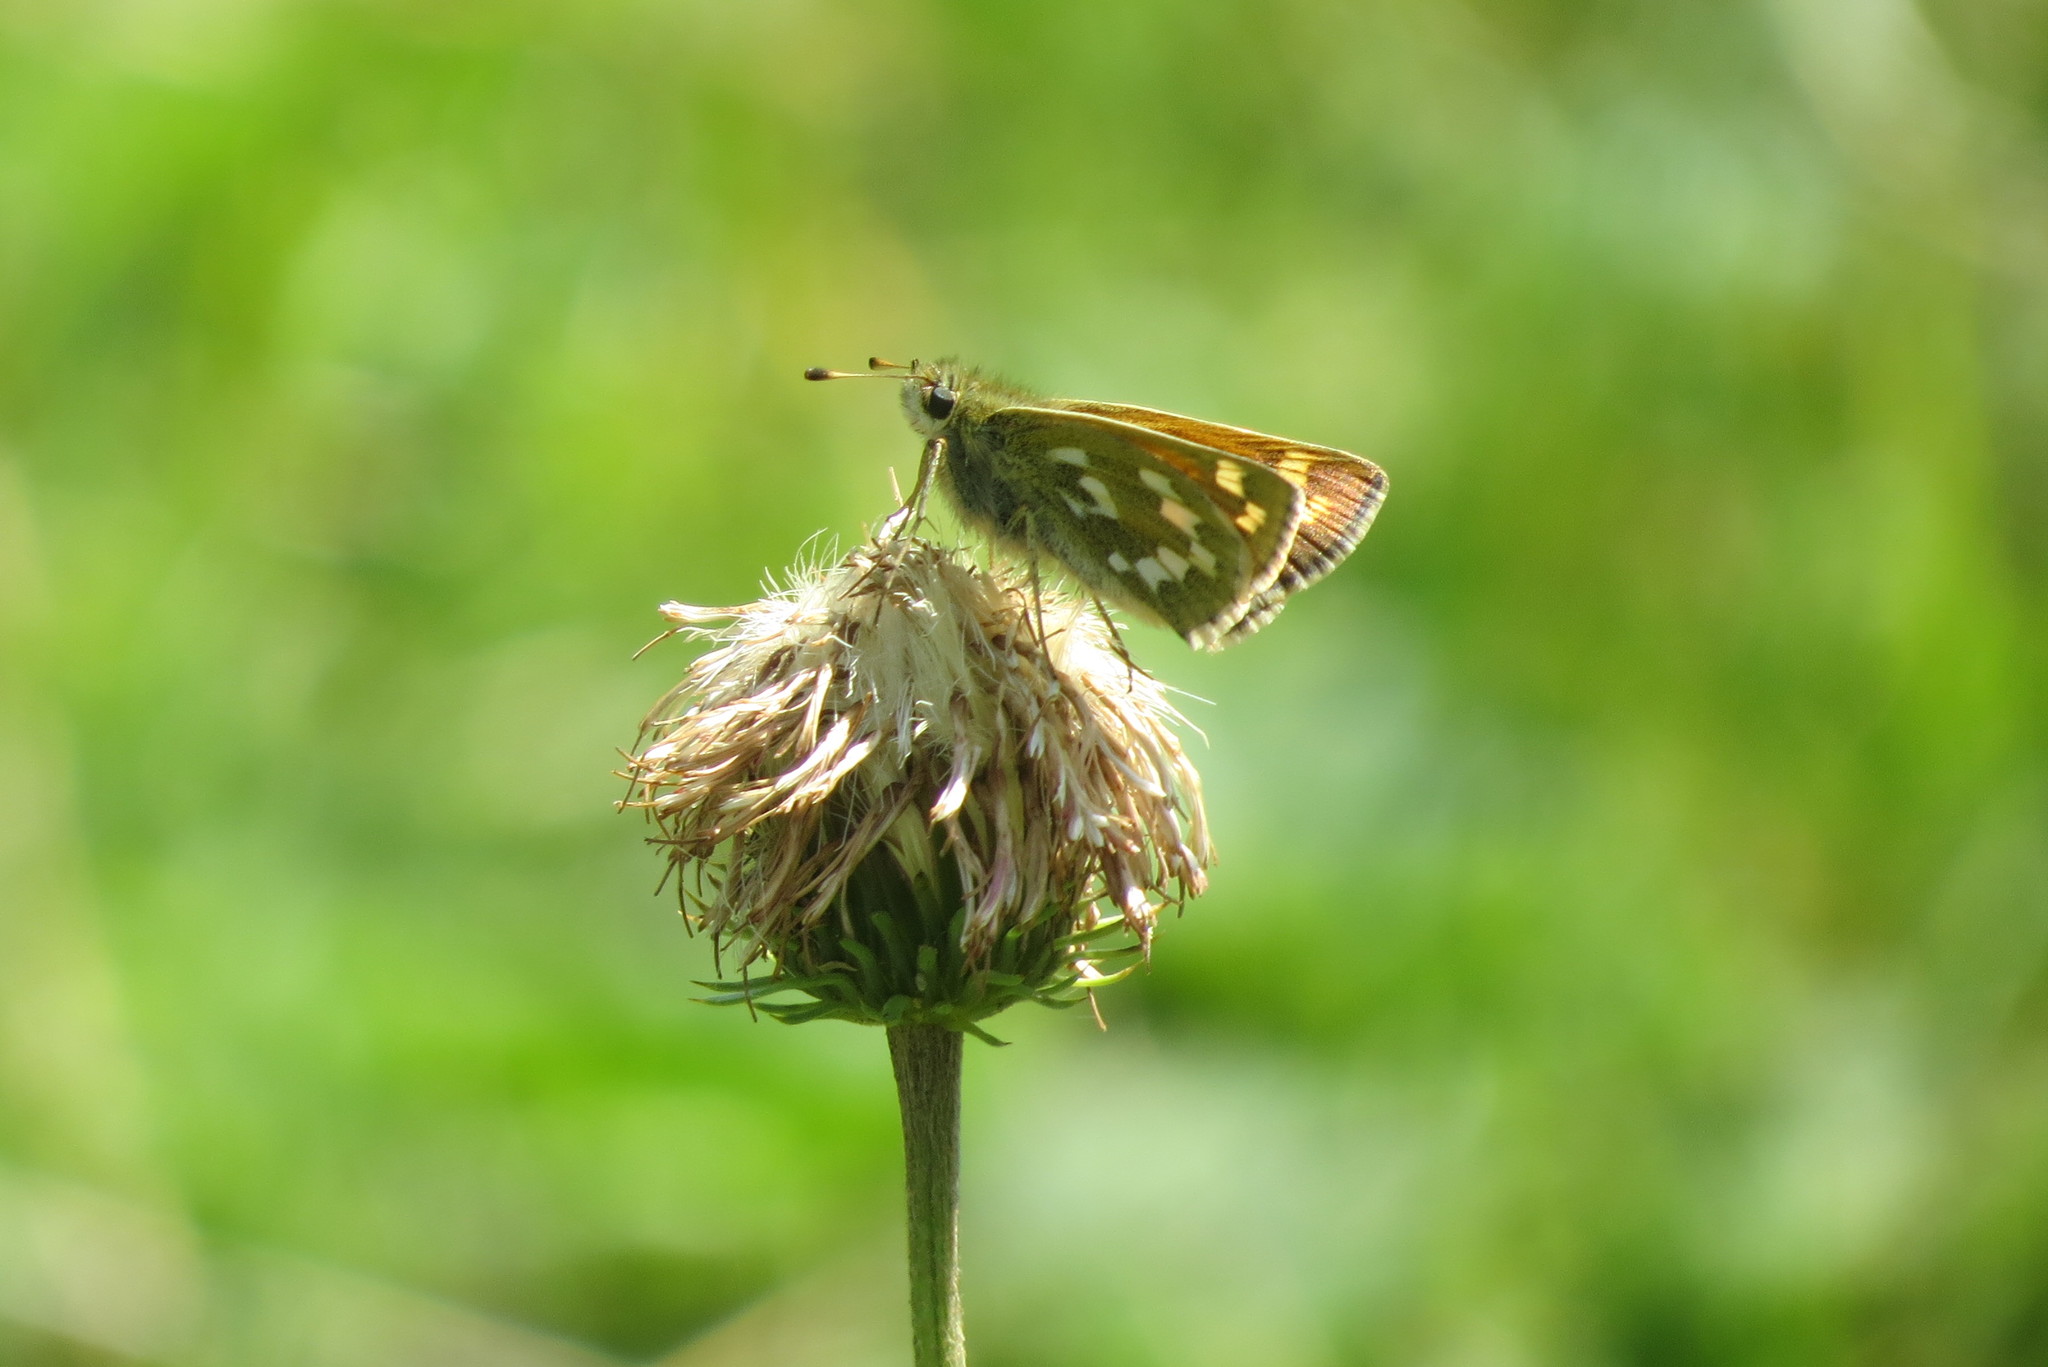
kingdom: Animalia
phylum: Arthropoda
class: Insecta
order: Lepidoptera
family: Hesperiidae
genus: Hesperia
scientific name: Hesperia comma
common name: Common branded skipper
